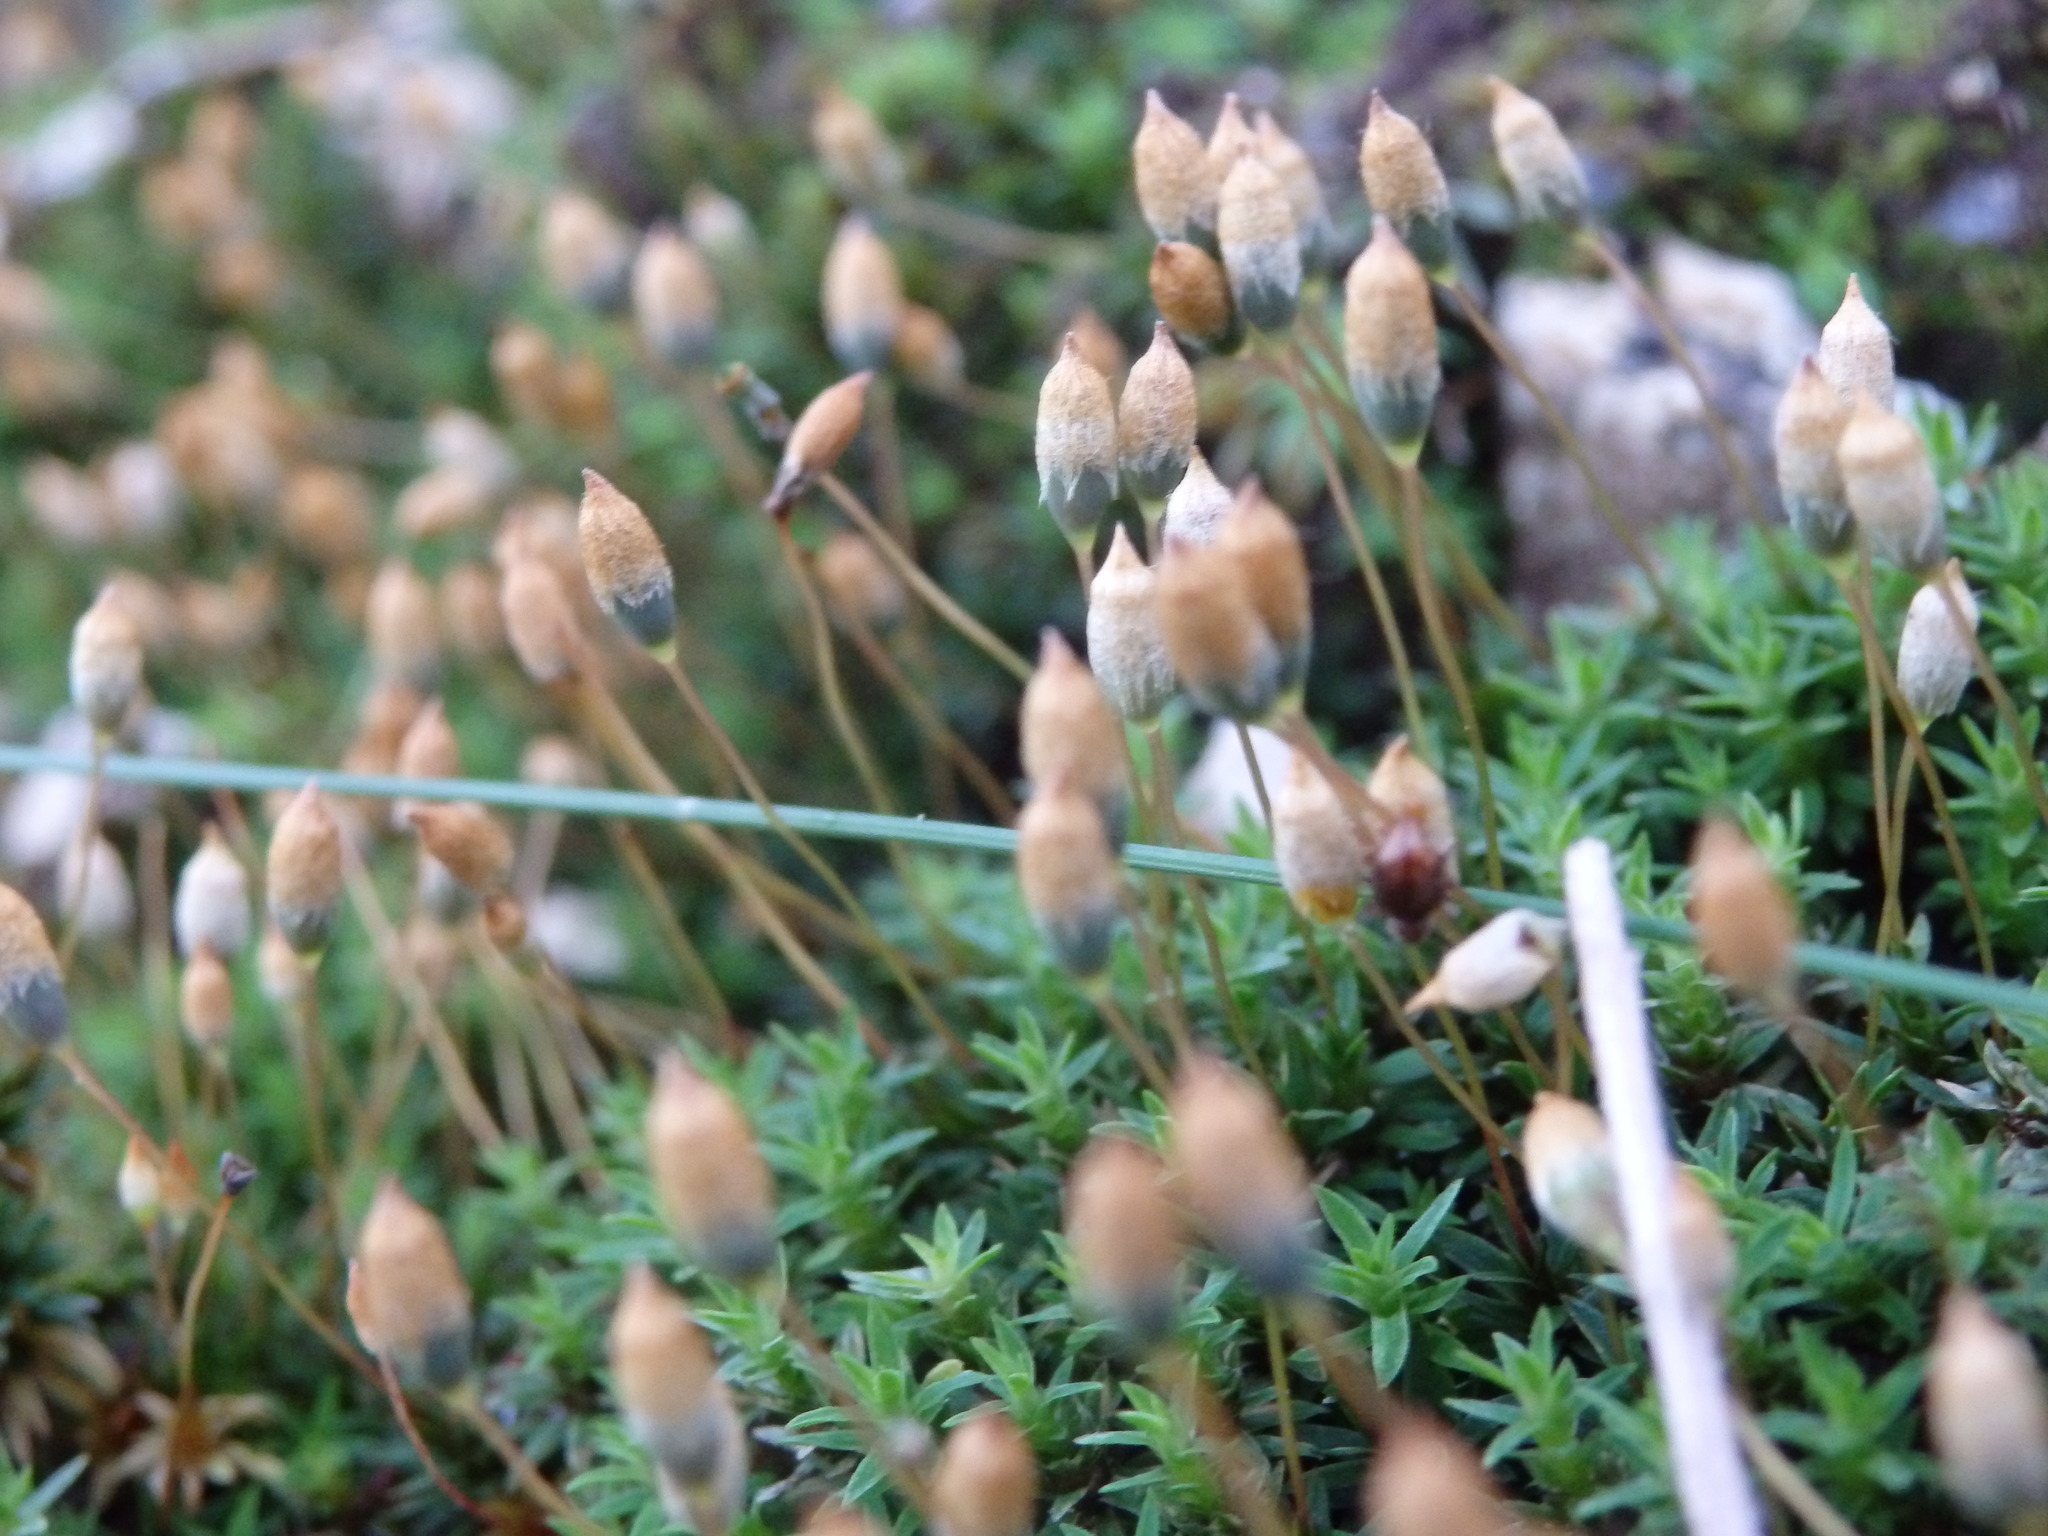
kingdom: Plantae
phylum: Bryophyta
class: Polytrichopsida
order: Polytrichales
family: Polytrichaceae
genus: Pogonatum
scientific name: Pogonatum aloides
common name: Aloe haircap
